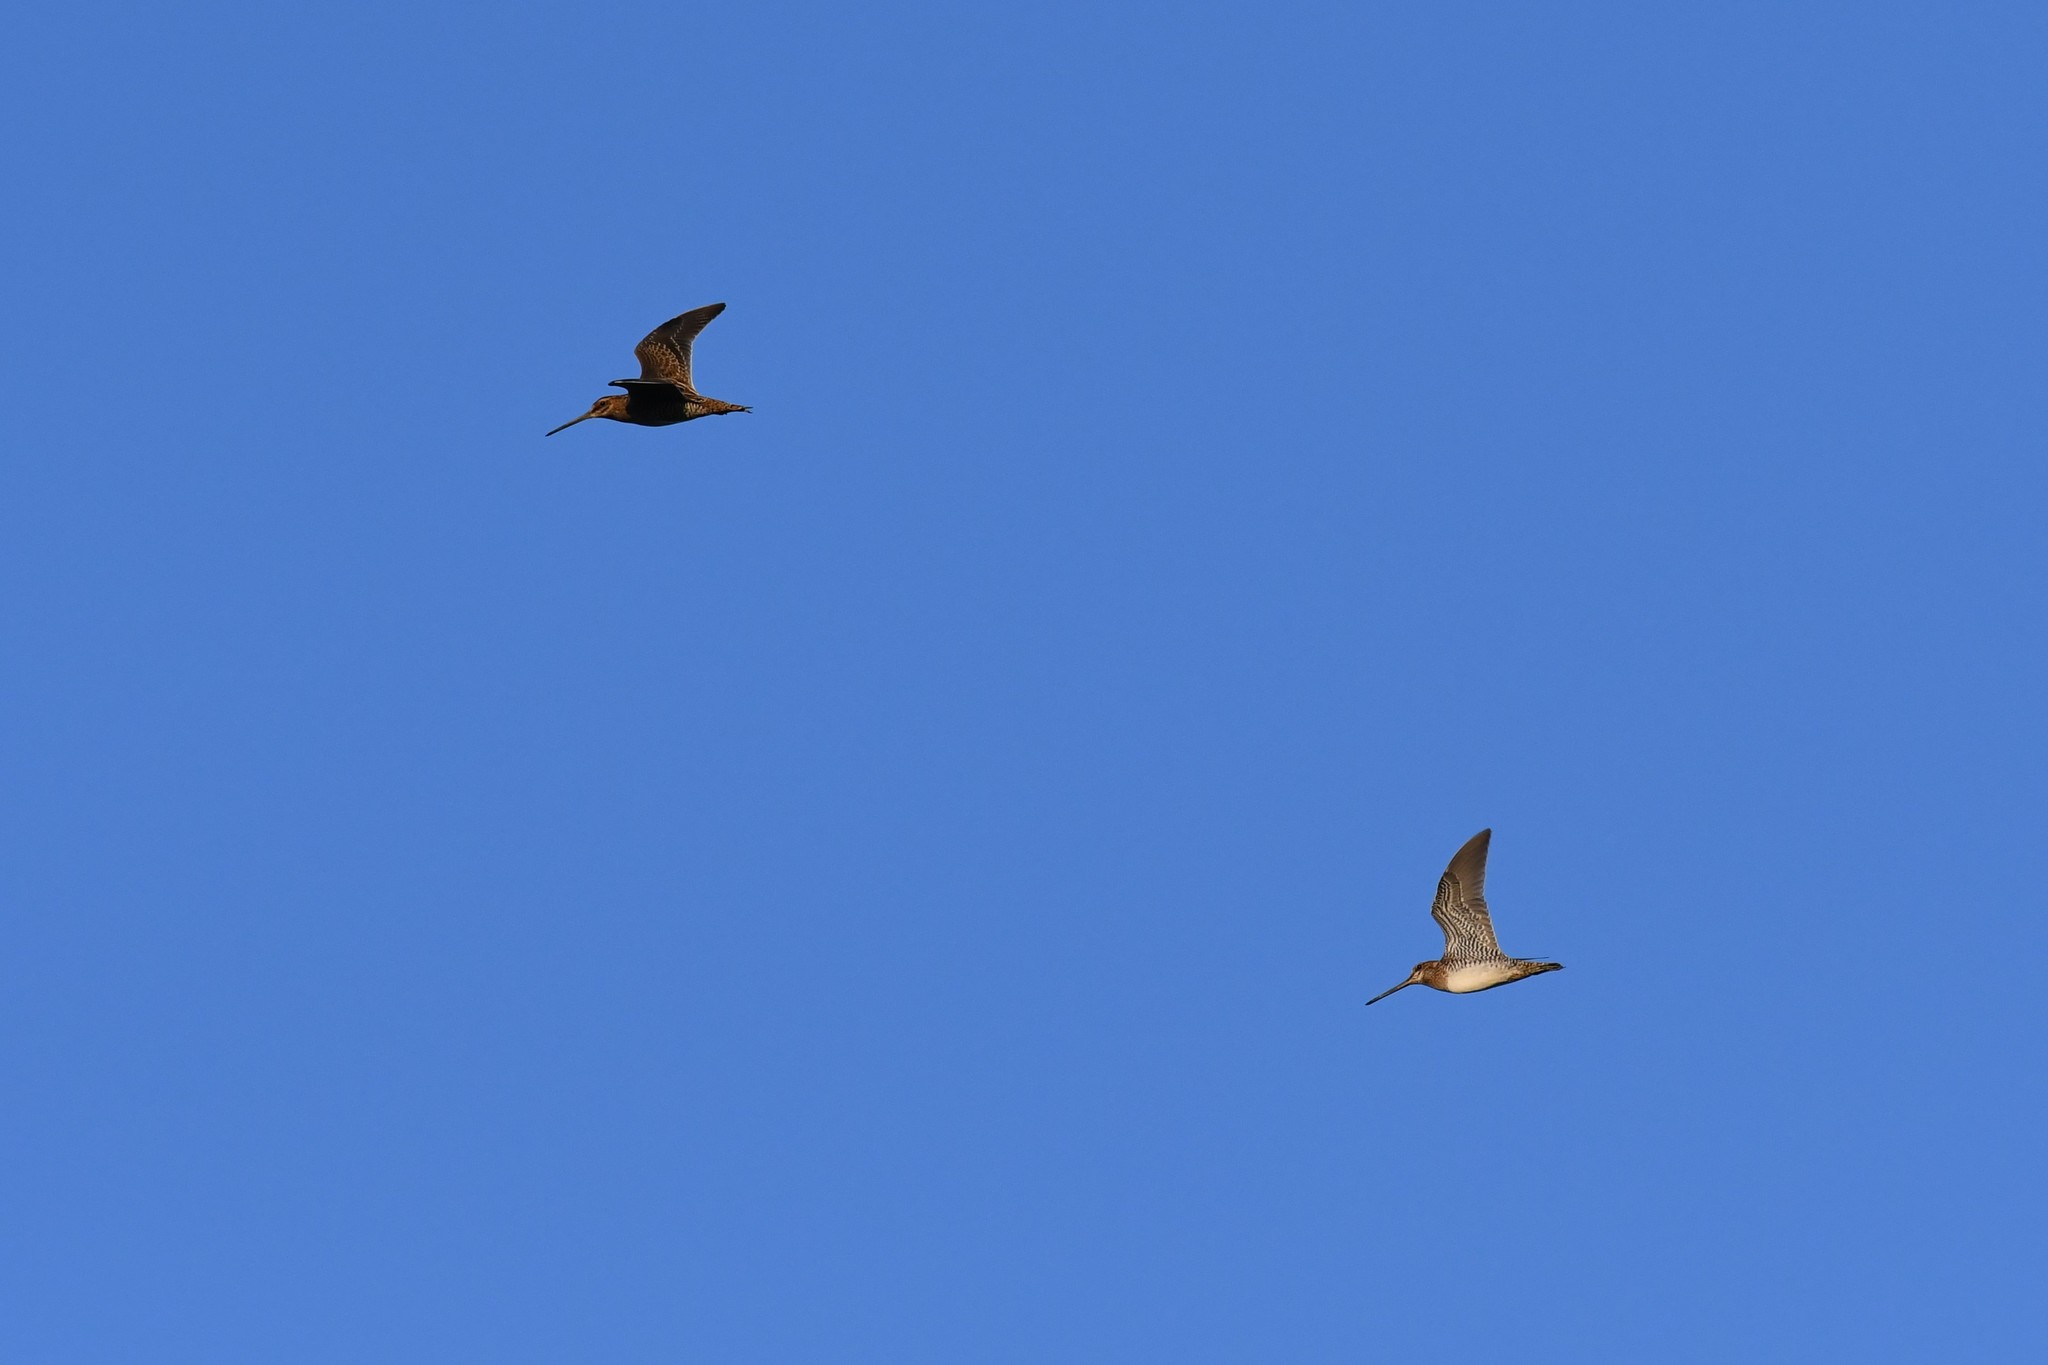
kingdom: Animalia
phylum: Chordata
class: Aves
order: Charadriiformes
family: Scolopacidae
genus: Gallinago
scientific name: Gallinago delicata
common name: Wilson's snipe
